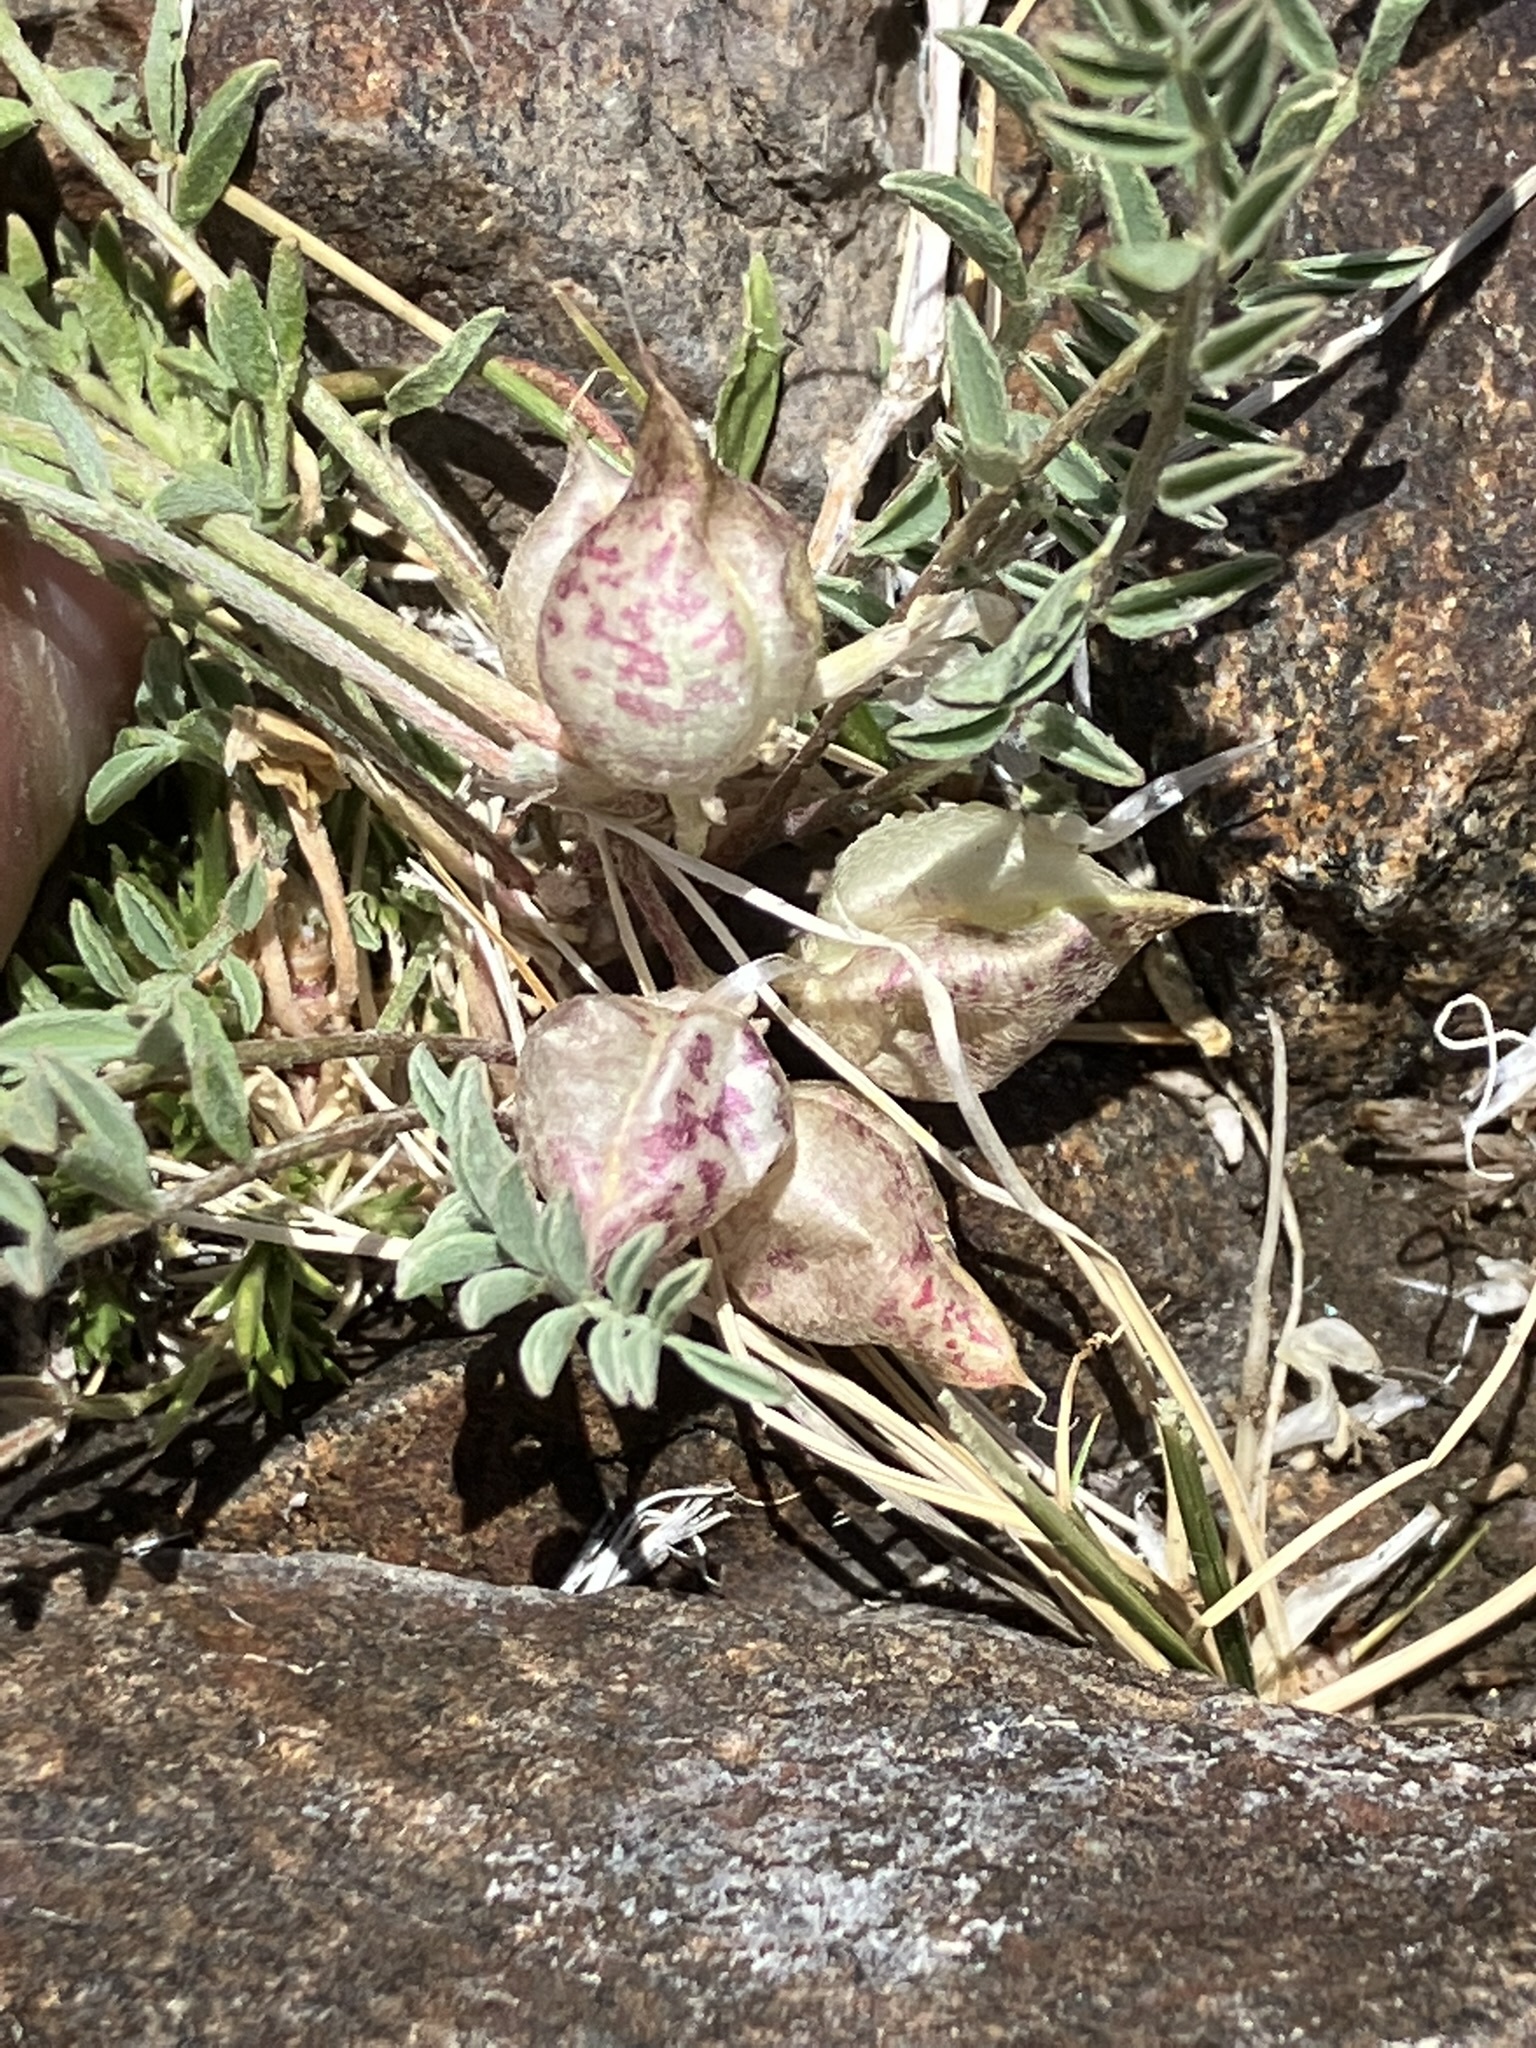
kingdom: Plantae
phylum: Tracheophyta
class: Magnoliopsida
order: Fabales
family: Fabaceae
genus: Astragalus
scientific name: Astragalus lentiginosus
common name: Freckled milkvetch
